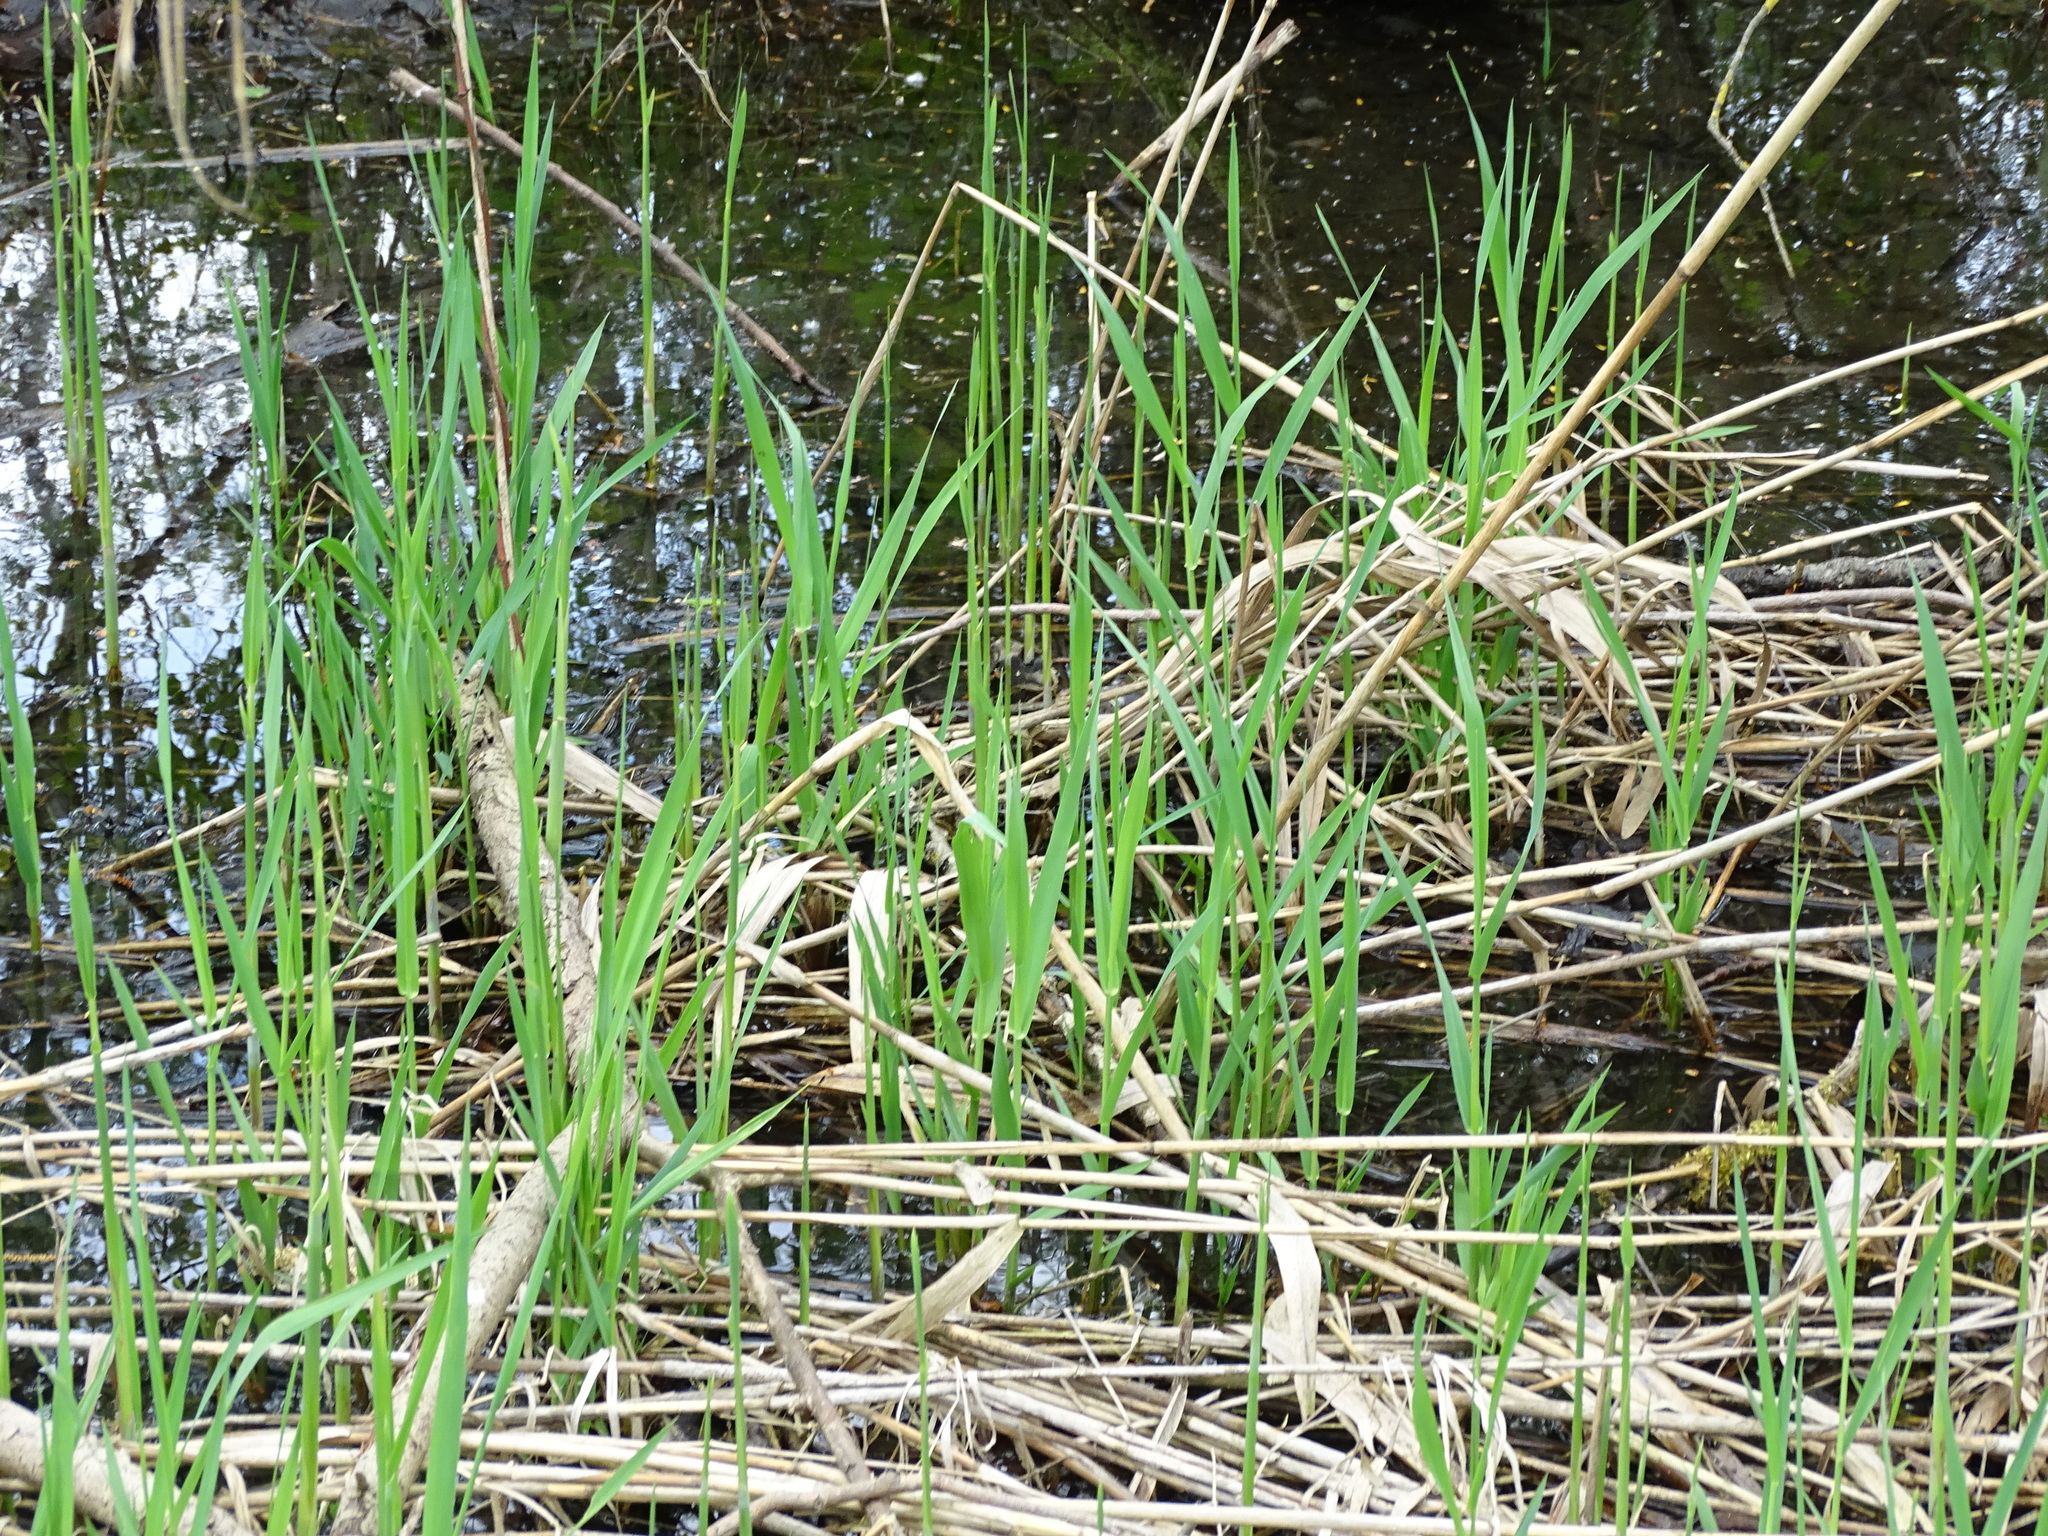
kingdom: Plantae
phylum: Tracheophyta
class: Liliopsida
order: Poales
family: Poaceae
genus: Phragmites
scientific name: Phragmites australis
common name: Common reed
